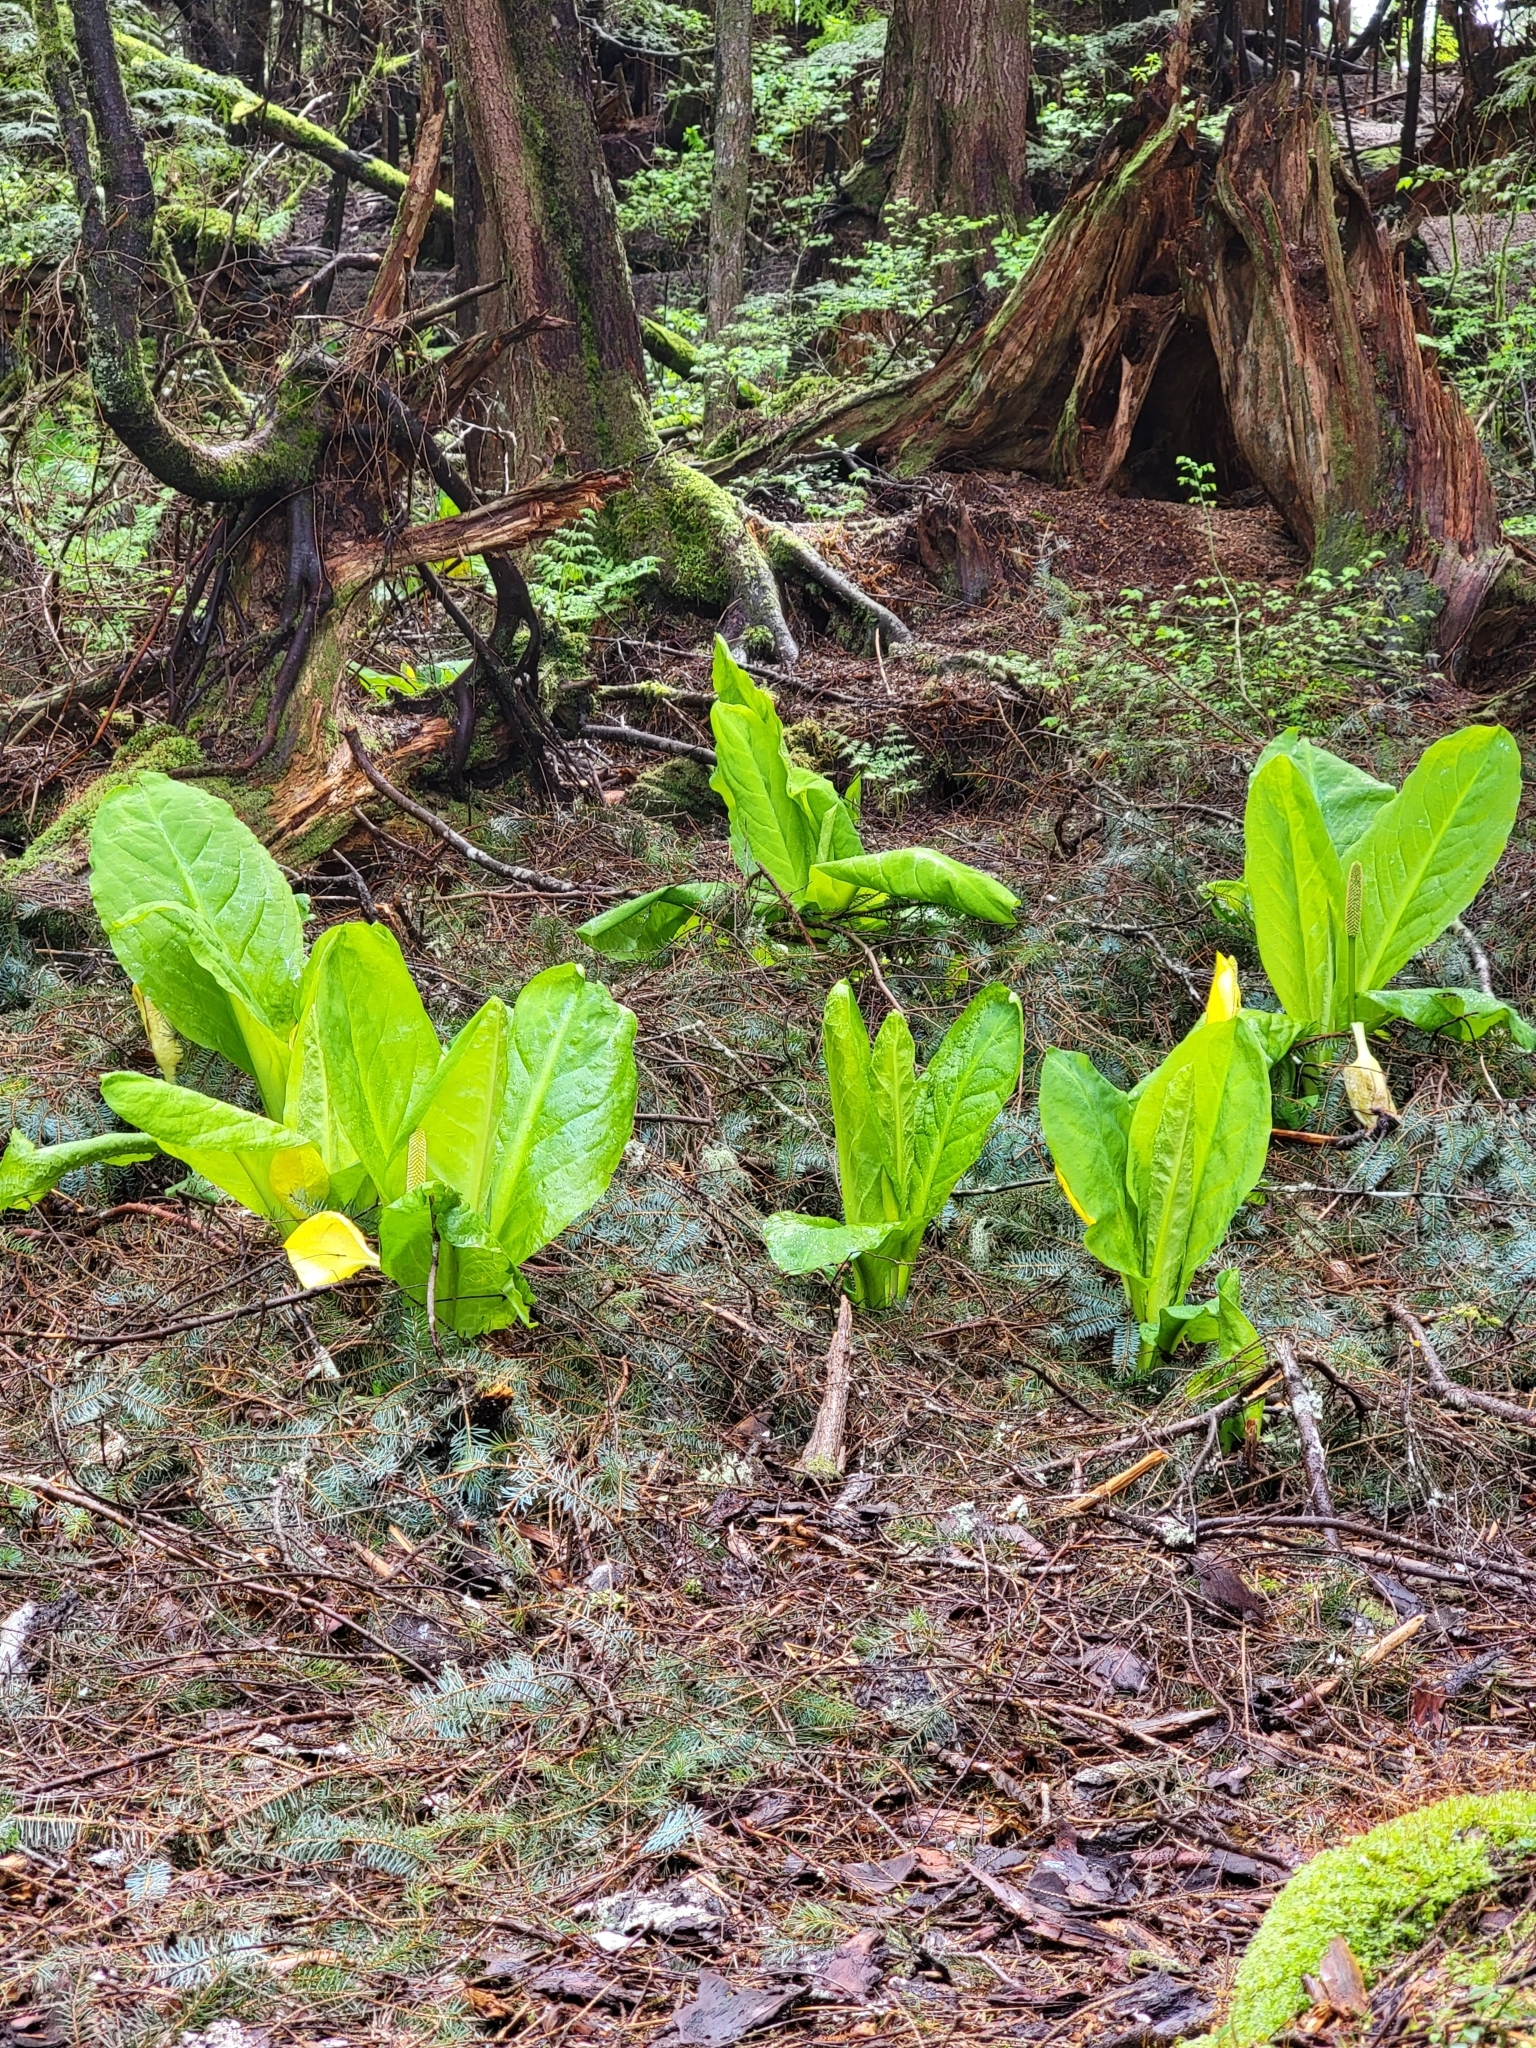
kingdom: Plantae
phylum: Tracheophyta
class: Liliopsida
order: Alismatales
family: Araceae
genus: Lysichiton
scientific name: Lysichiton americanus
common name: American skunk cabbage
